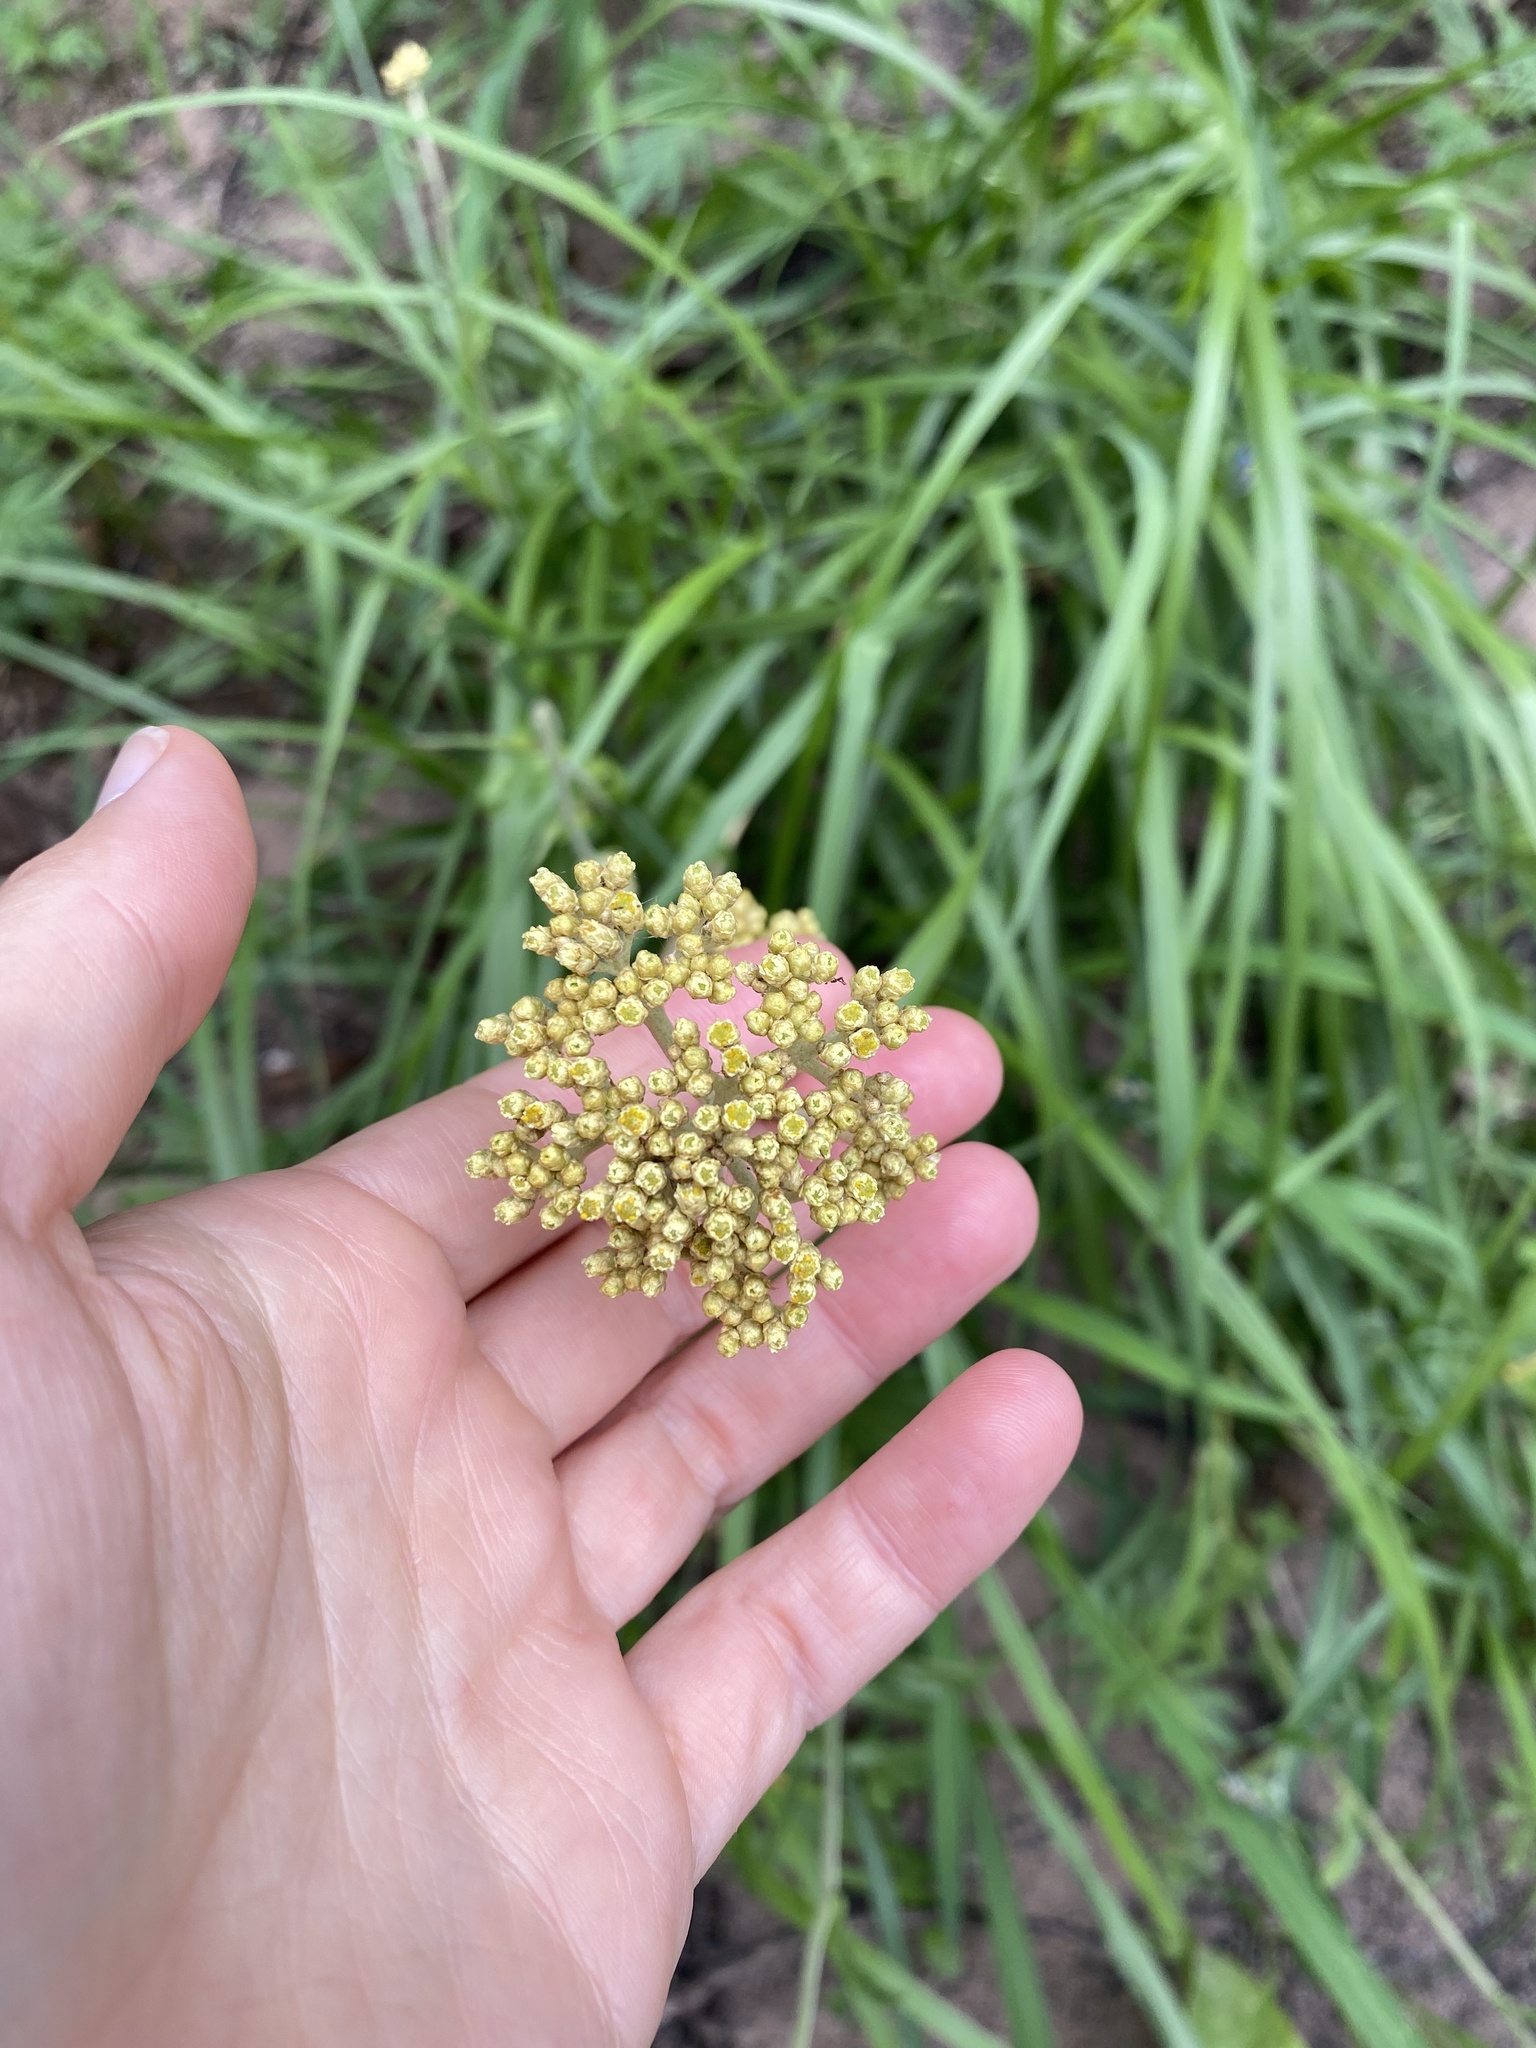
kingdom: Plantae
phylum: Tracheophyta
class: Magnoliopsida
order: Asterales
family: Asteraceae
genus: Helichrysum
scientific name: Helichrysum nudifolium
